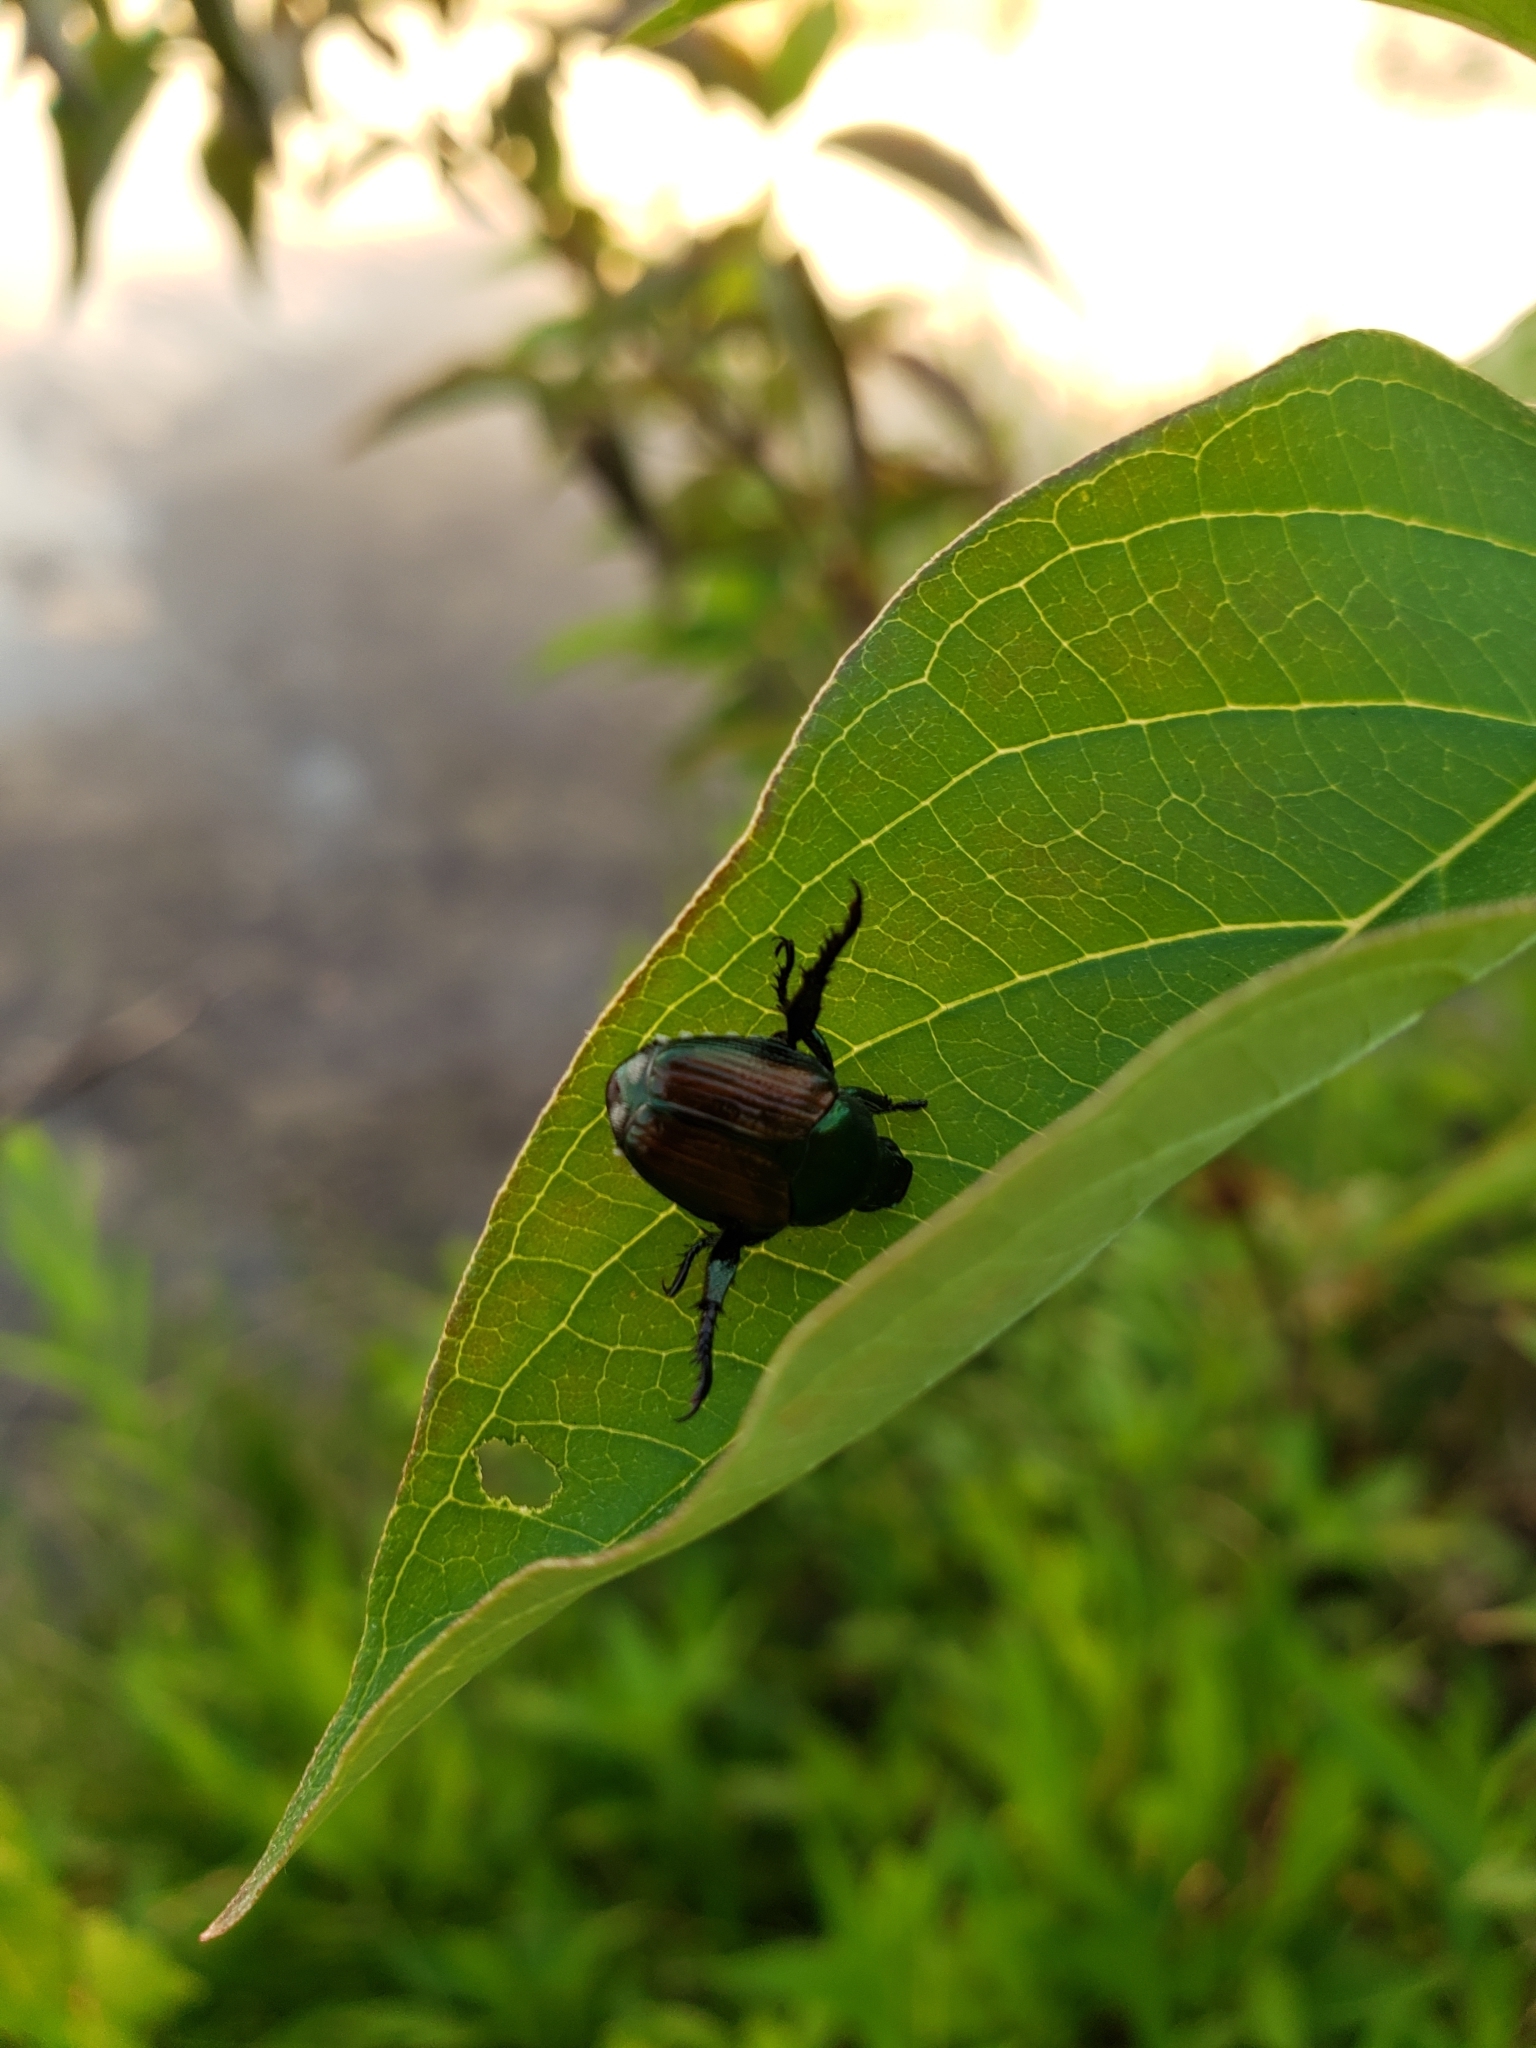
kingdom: Animalia
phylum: Arthropoda
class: Insecta
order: Coleoptera
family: Scarabaeidae
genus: Popillia
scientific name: Popillia japonica
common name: Japanese beetle
